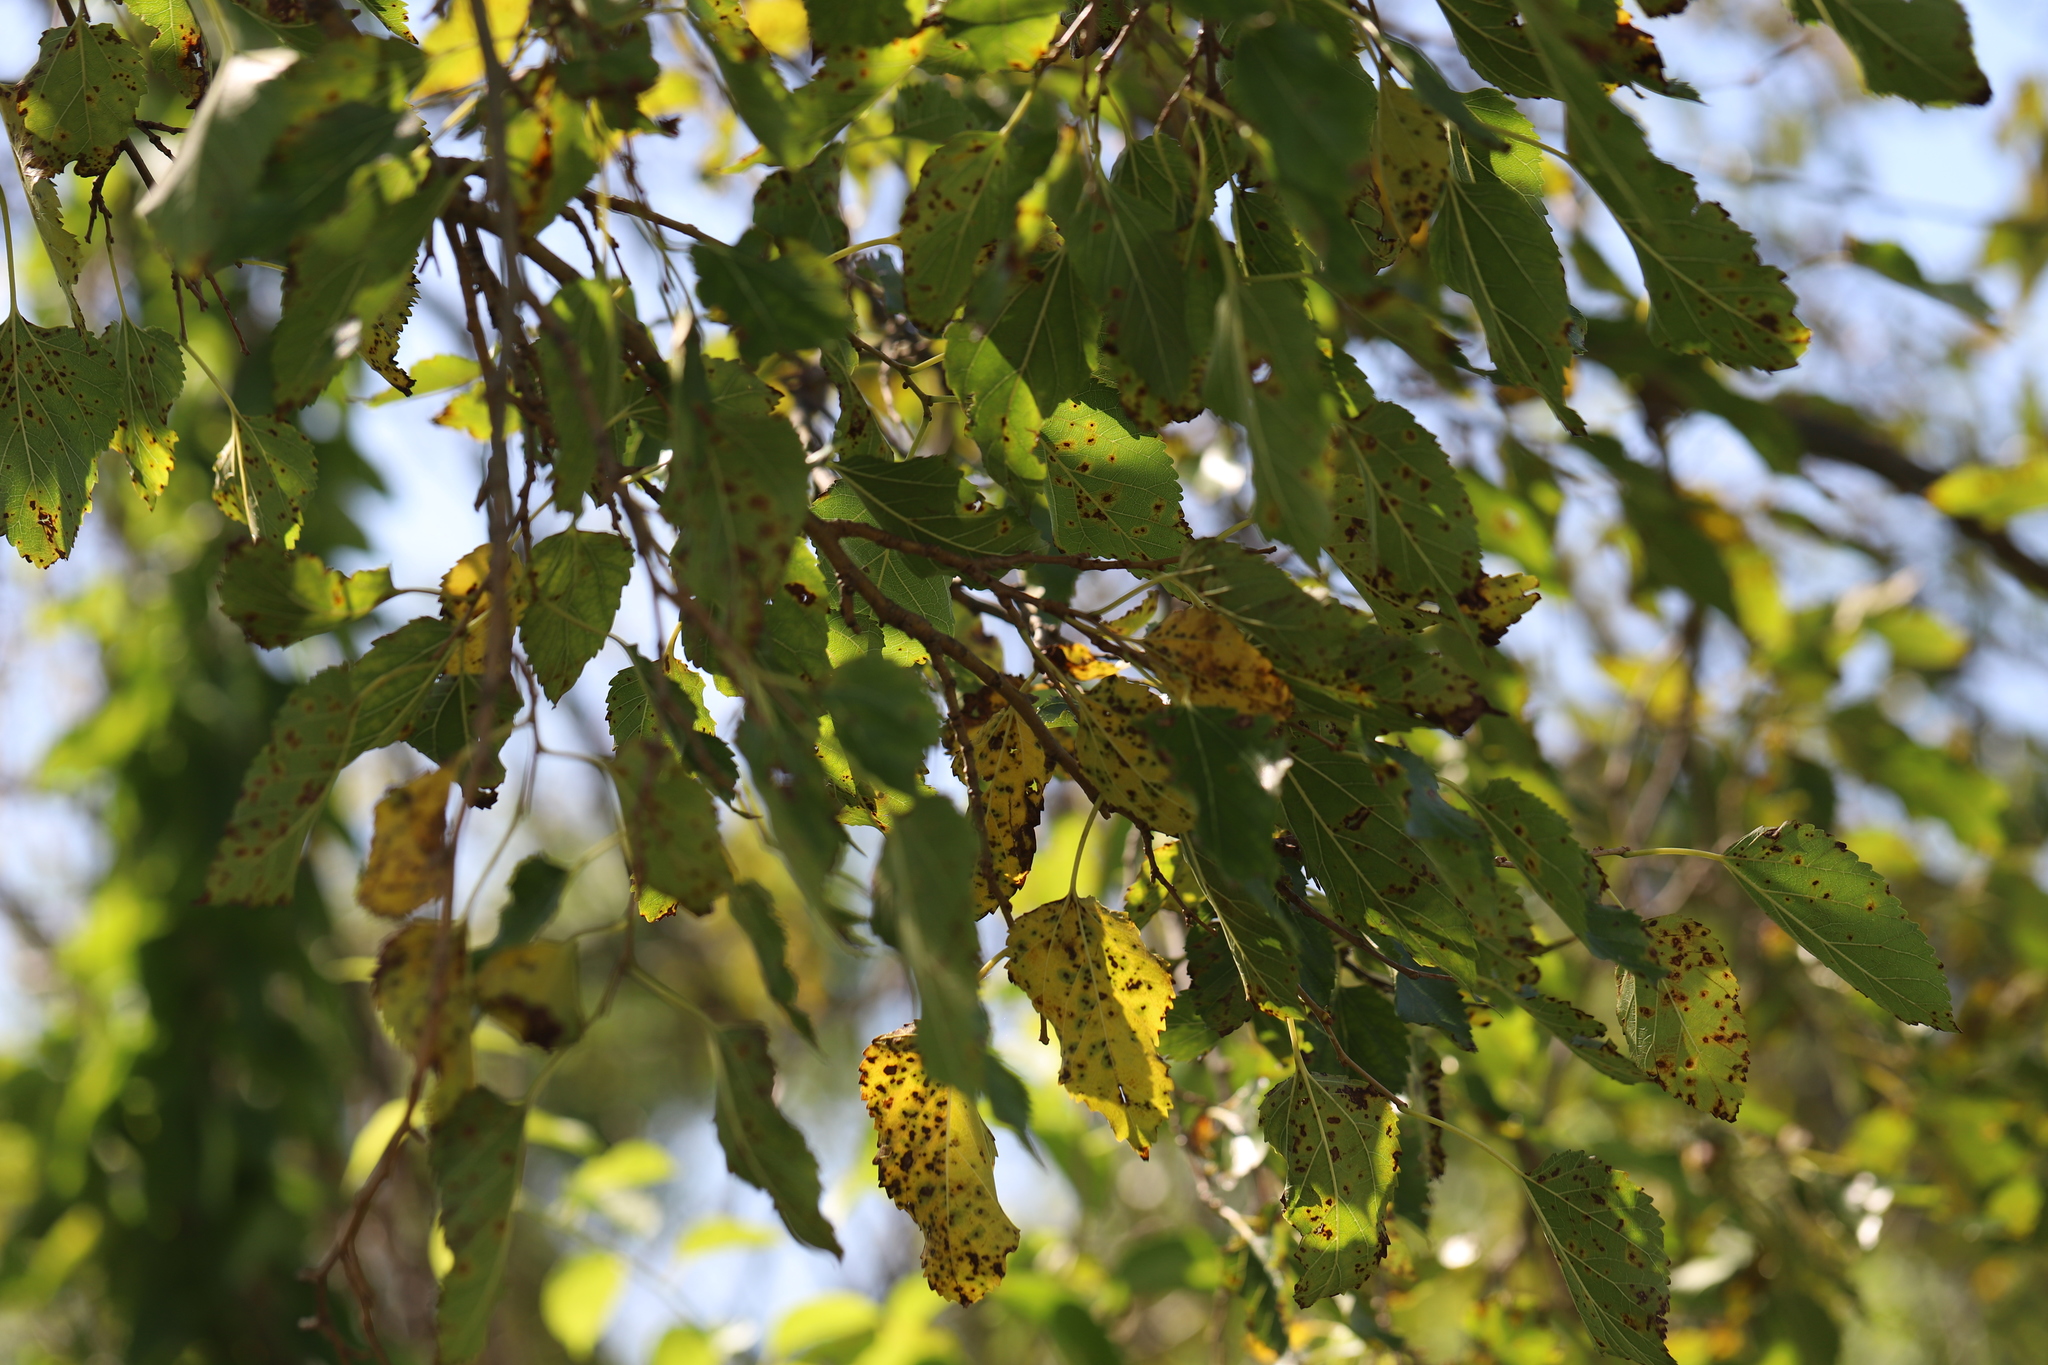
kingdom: Plantae
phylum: Tracheophyta
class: Magnoliopsida
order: Rosales
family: Moraceae
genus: Morus
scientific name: Morus alba
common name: White mulberry
